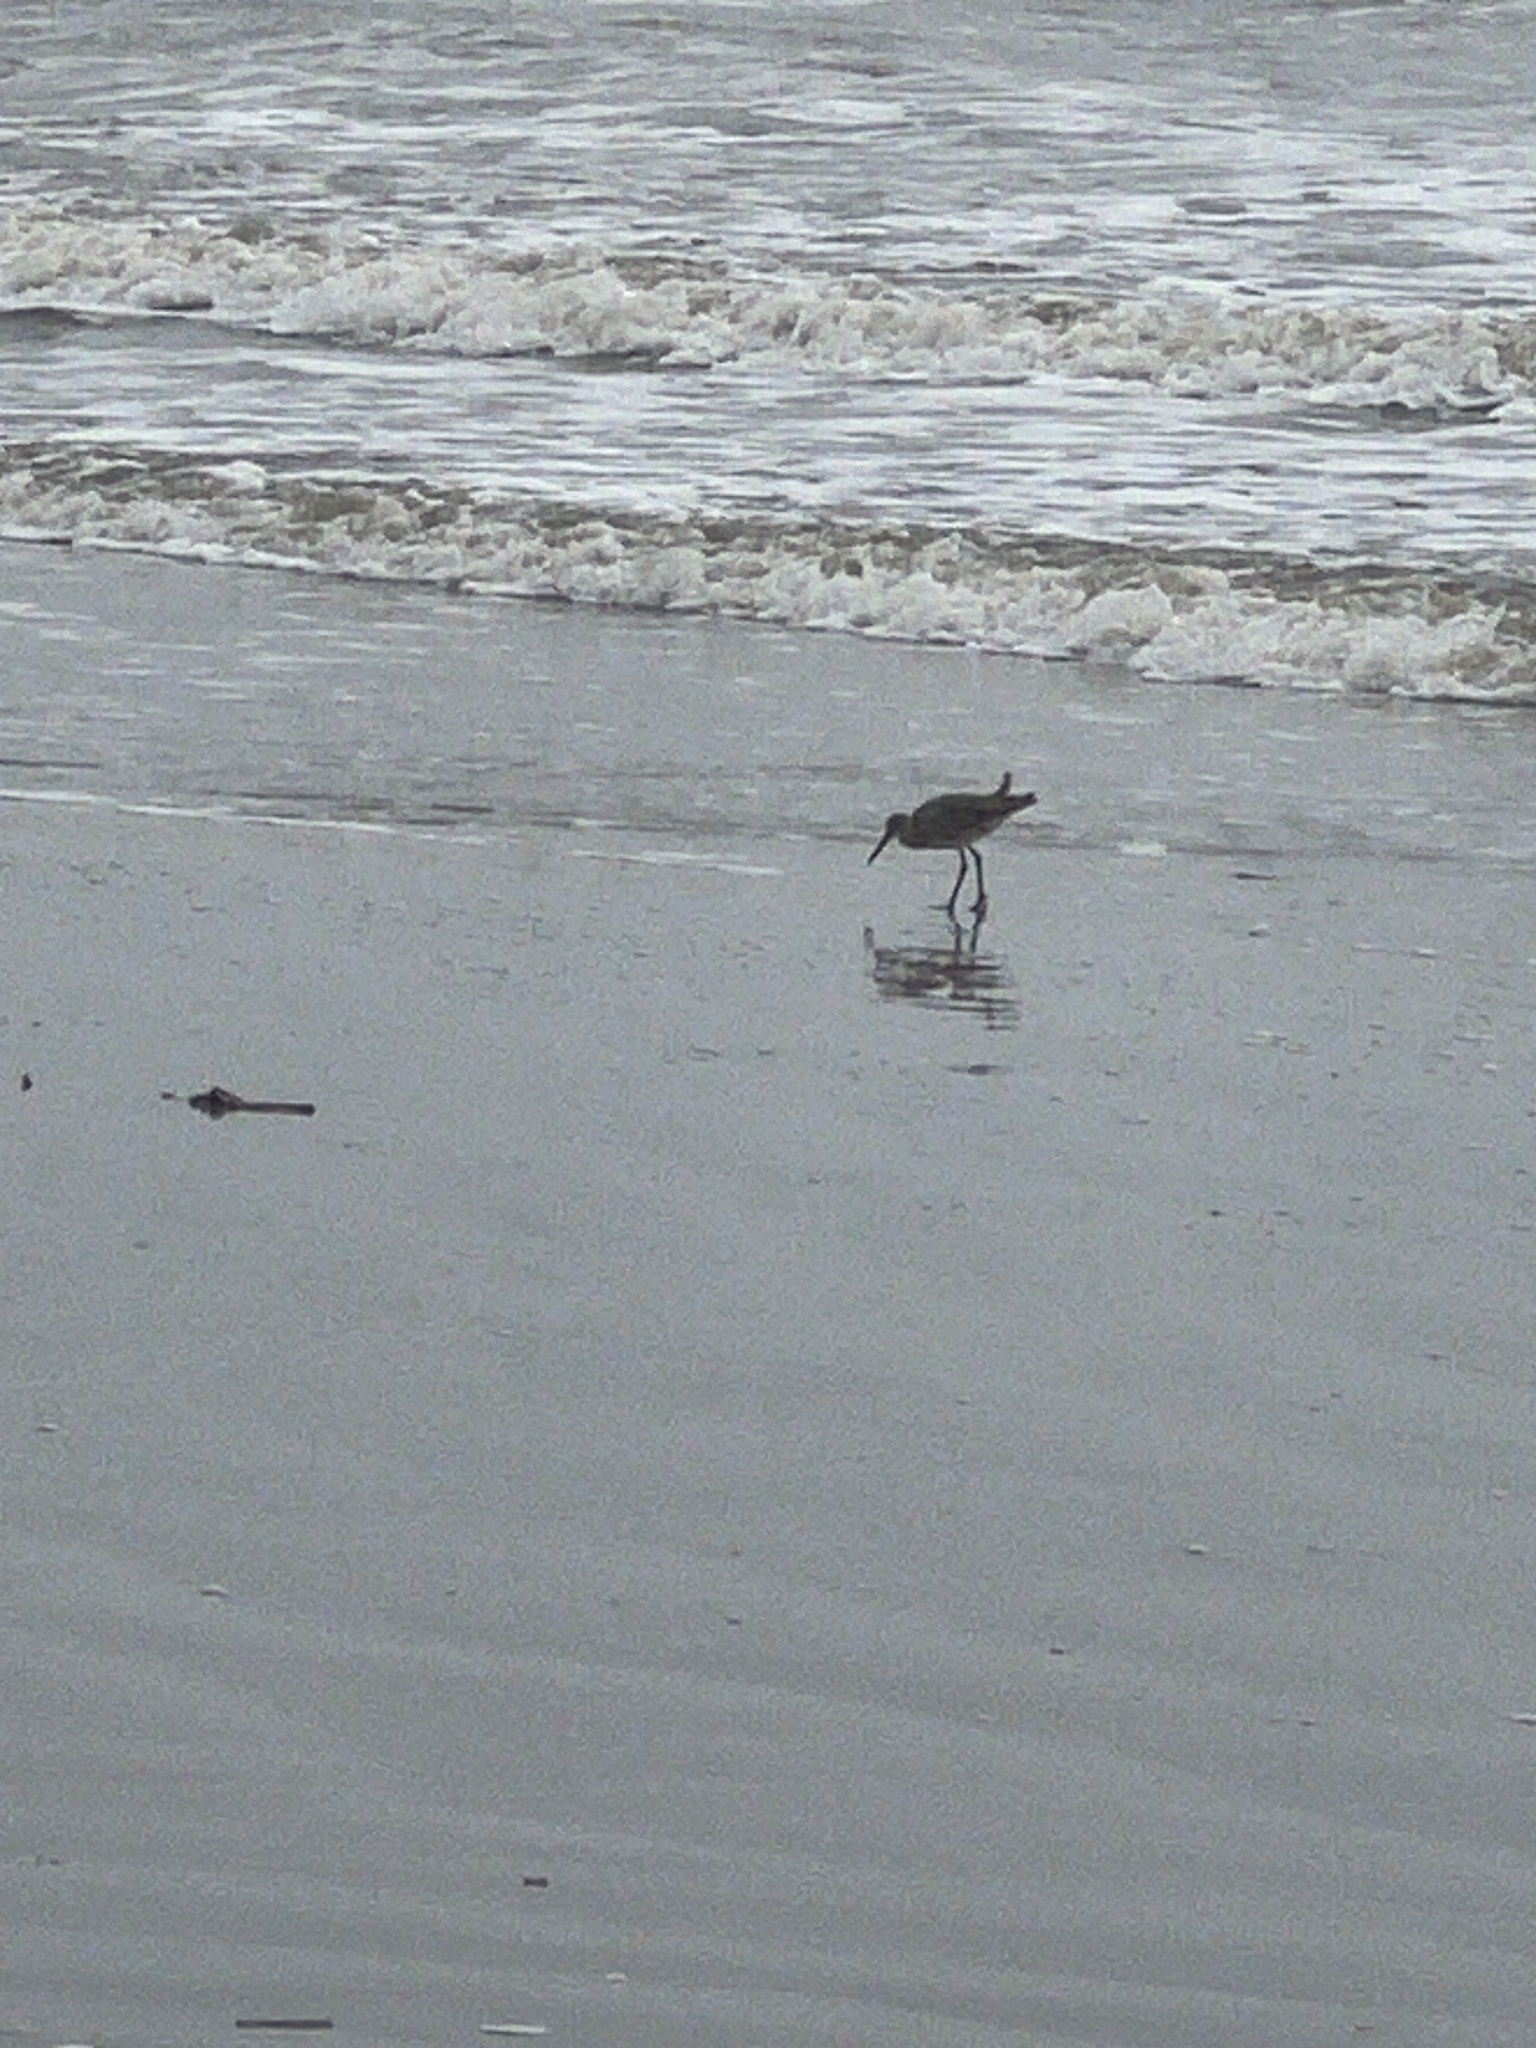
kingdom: Animalia
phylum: Chordata
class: Aves
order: Charadriiformes
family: Scolopacidae
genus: Tringa
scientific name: Tringa semipalmata
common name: Willet
